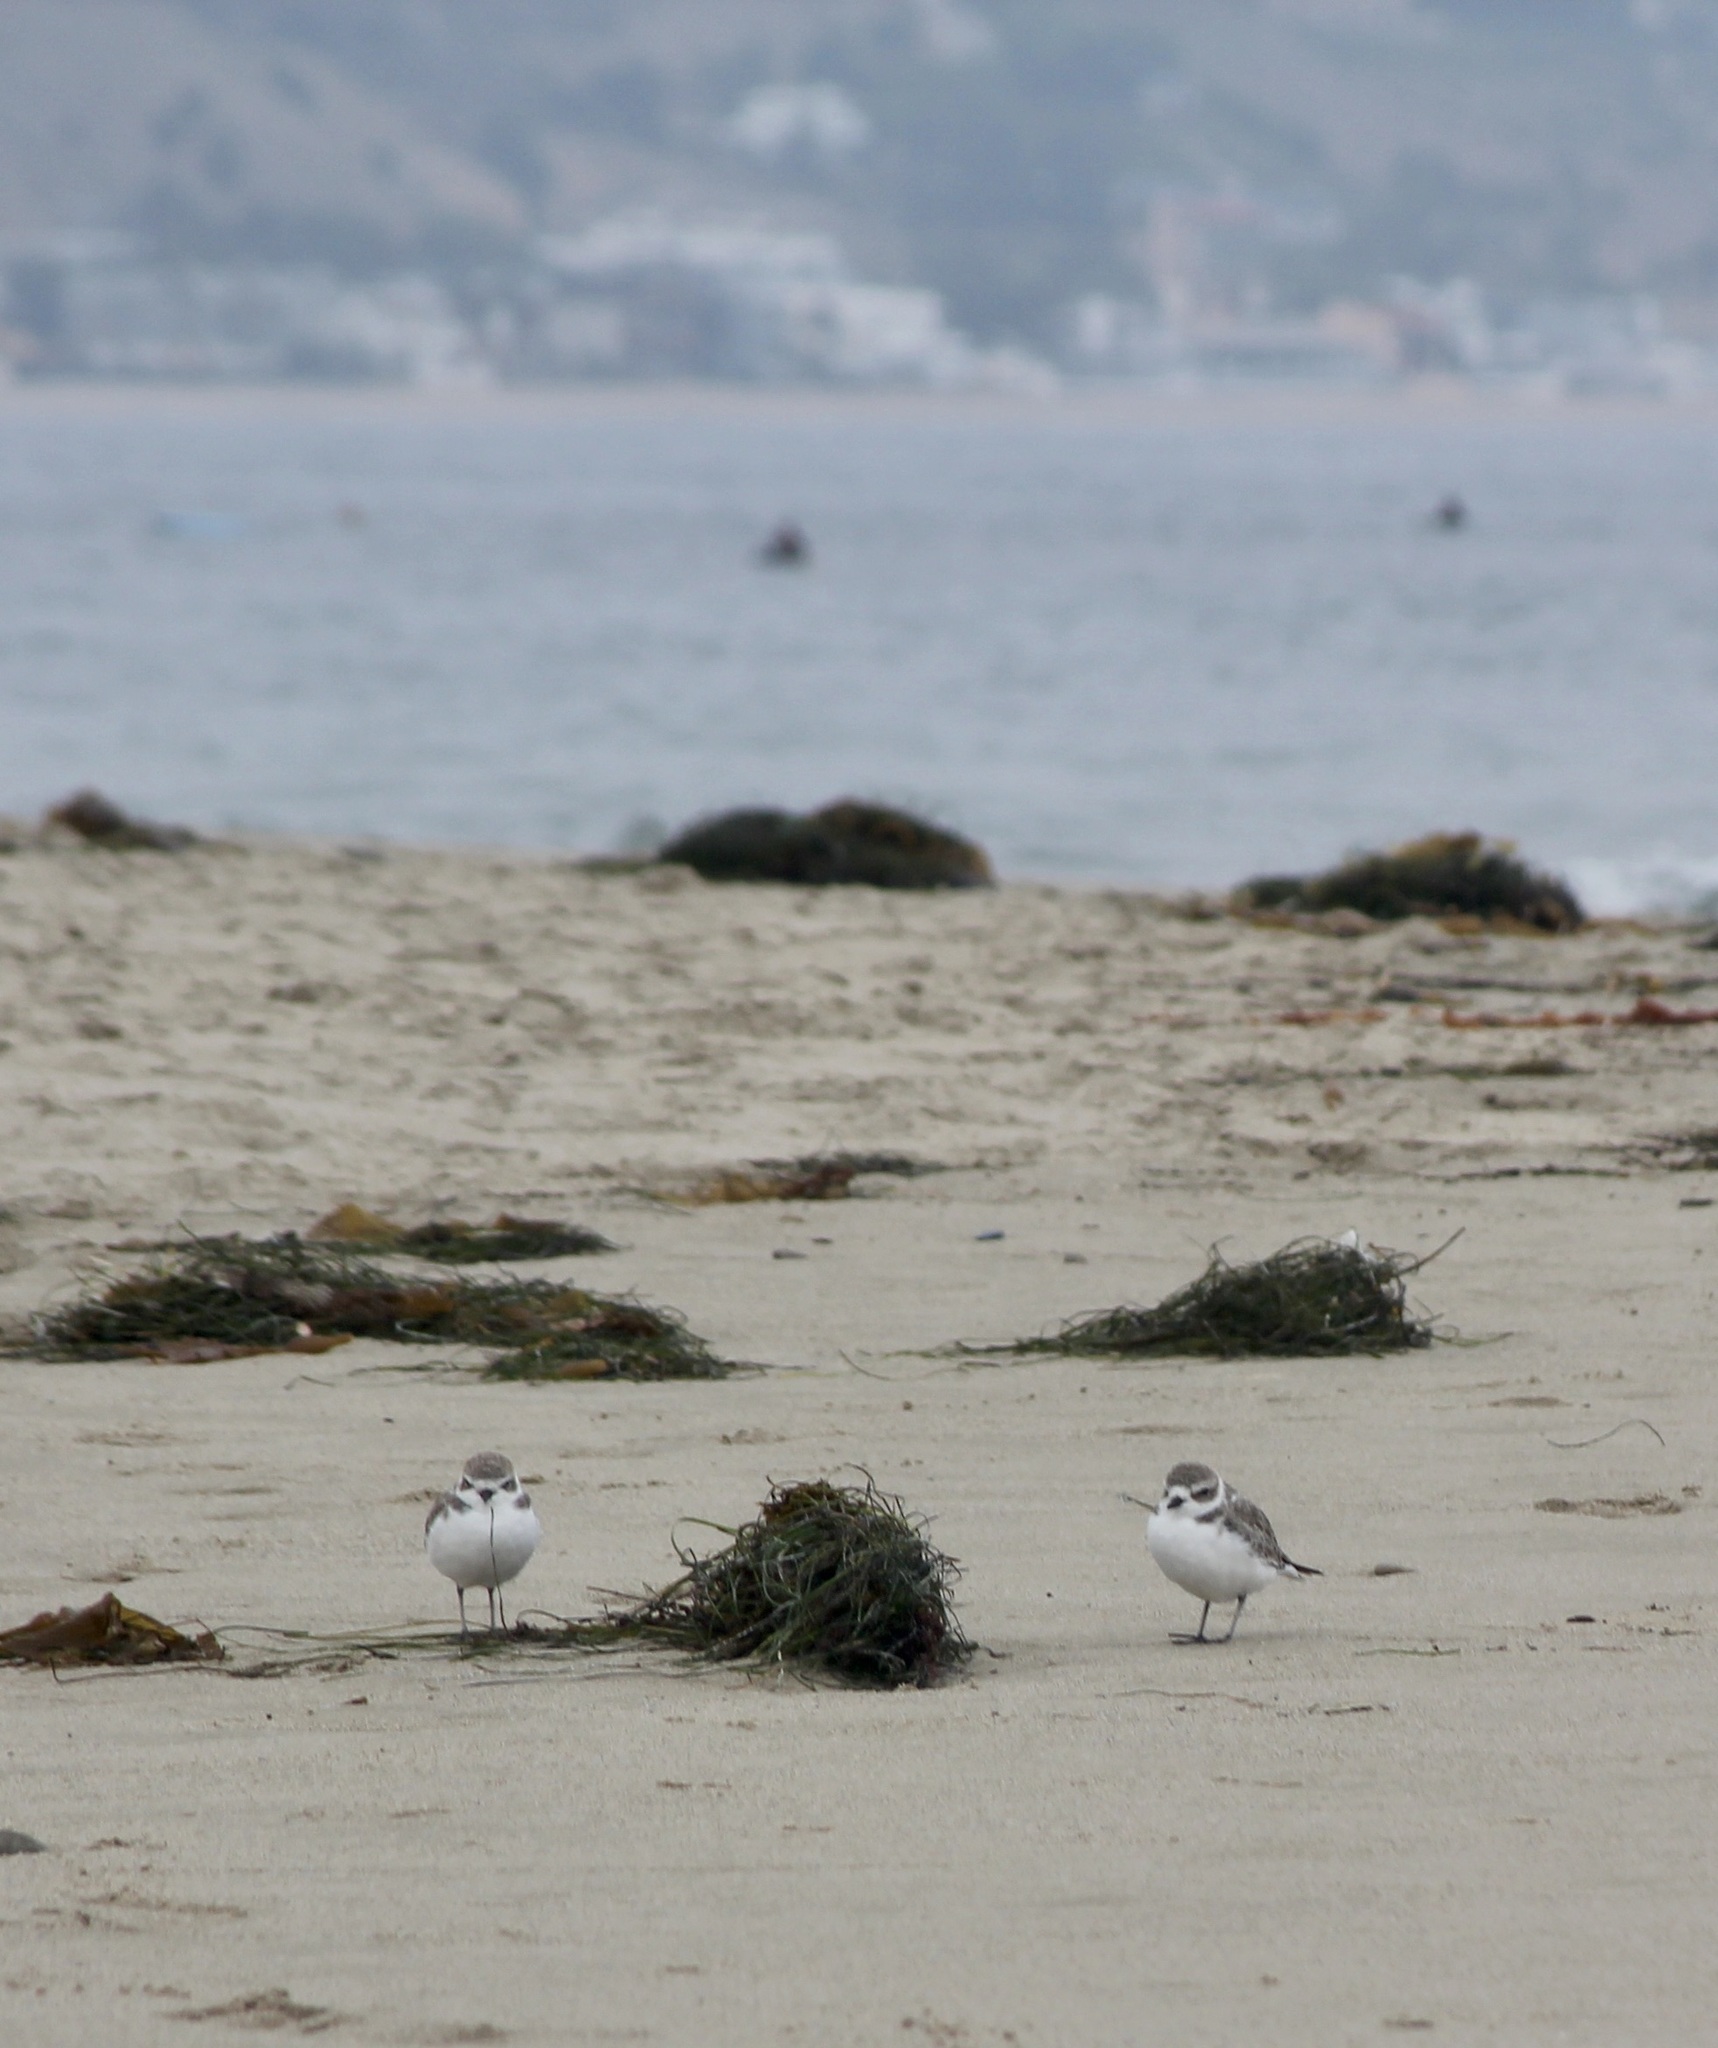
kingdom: Animalia
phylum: Chordata
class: Aves
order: Charadriiformes
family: Charadriidae
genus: Anarhynchus
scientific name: Anarhynchus
